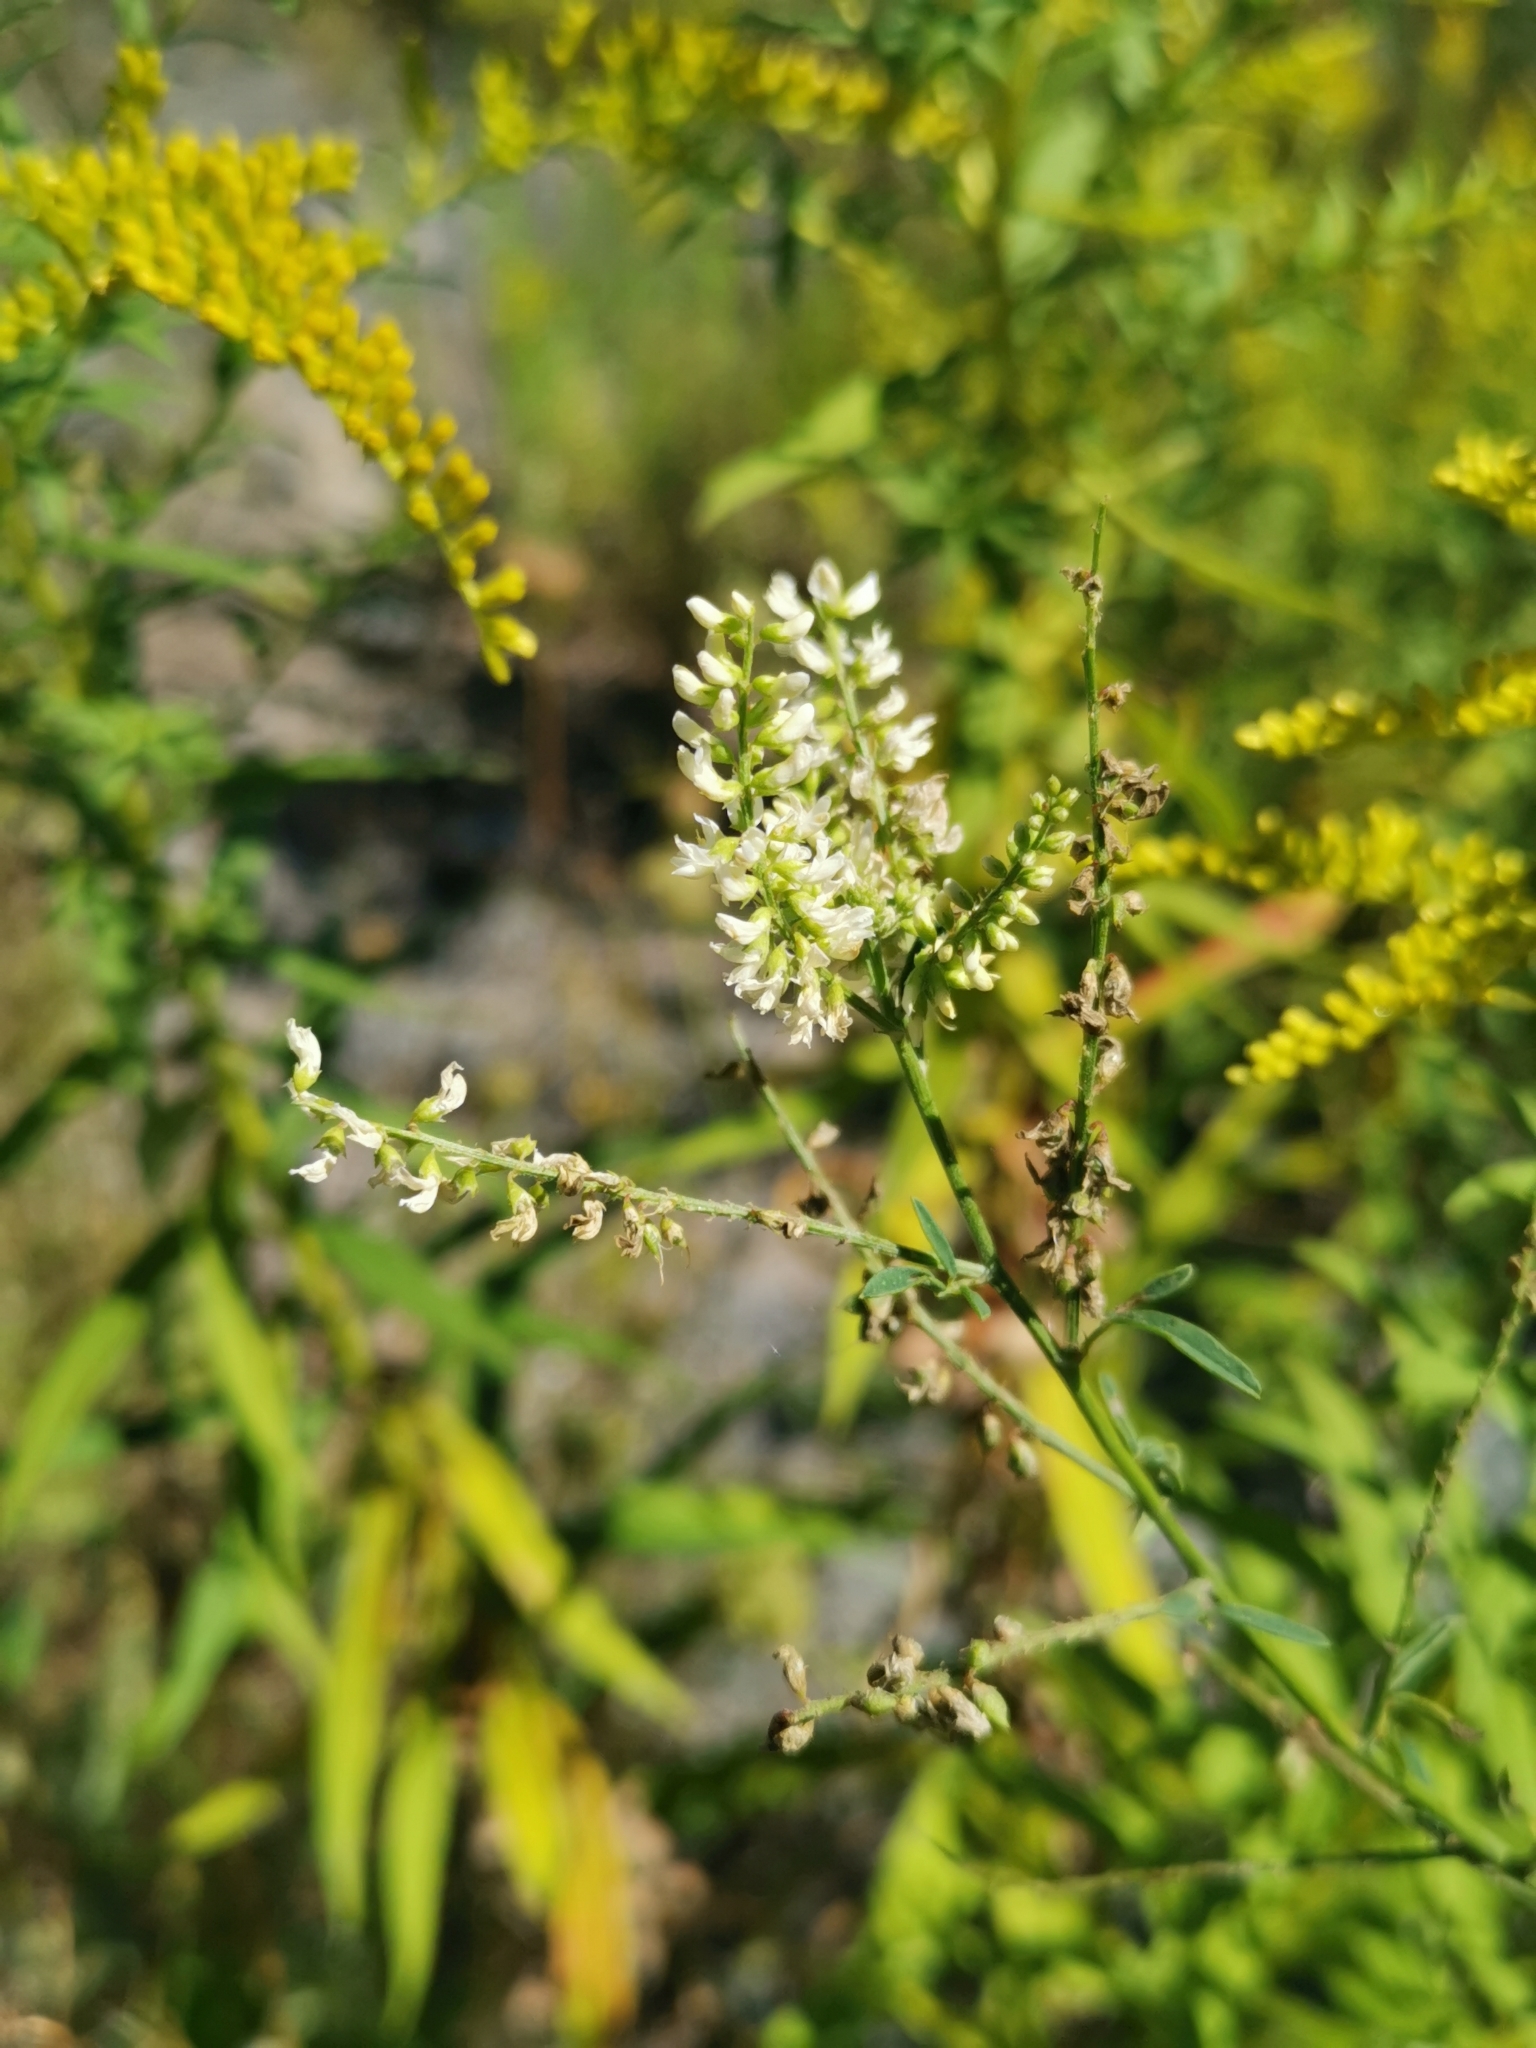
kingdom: Plantae
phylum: Tracheophyta
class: Magnoliopsida
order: Fabales
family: Fabaceae
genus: Melilotus
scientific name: Melilotus albus
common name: White melilot
